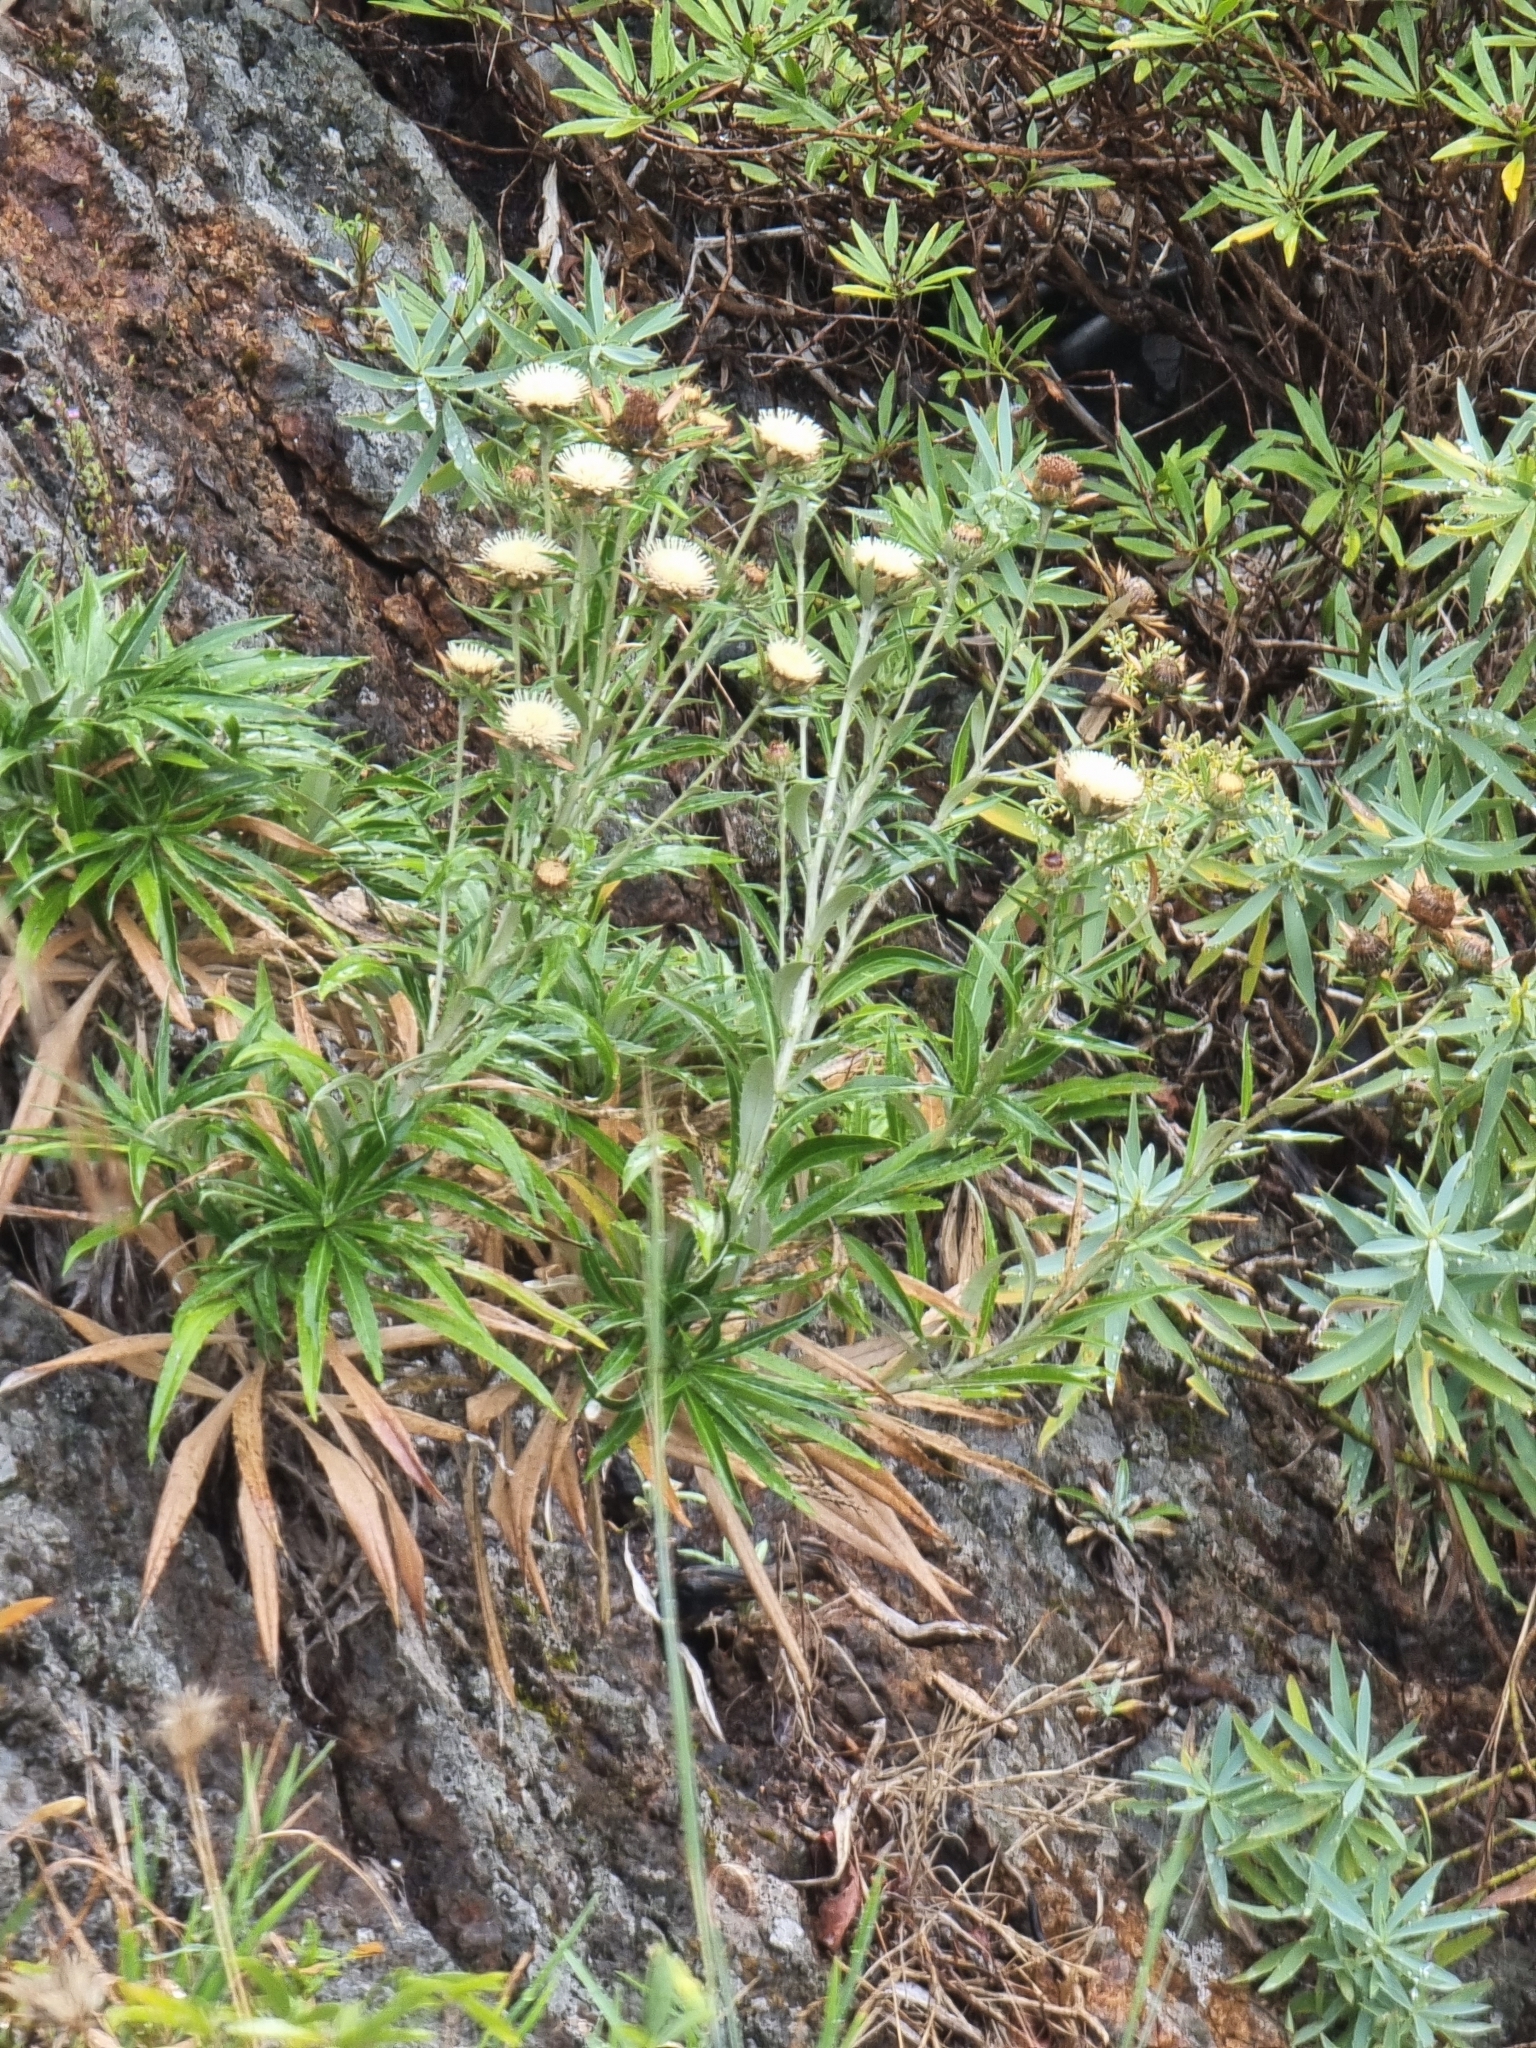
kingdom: Plantae
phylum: Tracheophyta
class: Magnoliopsida
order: Asterales
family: Asteraceae
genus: Carlina
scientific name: Carlina salicifolia
